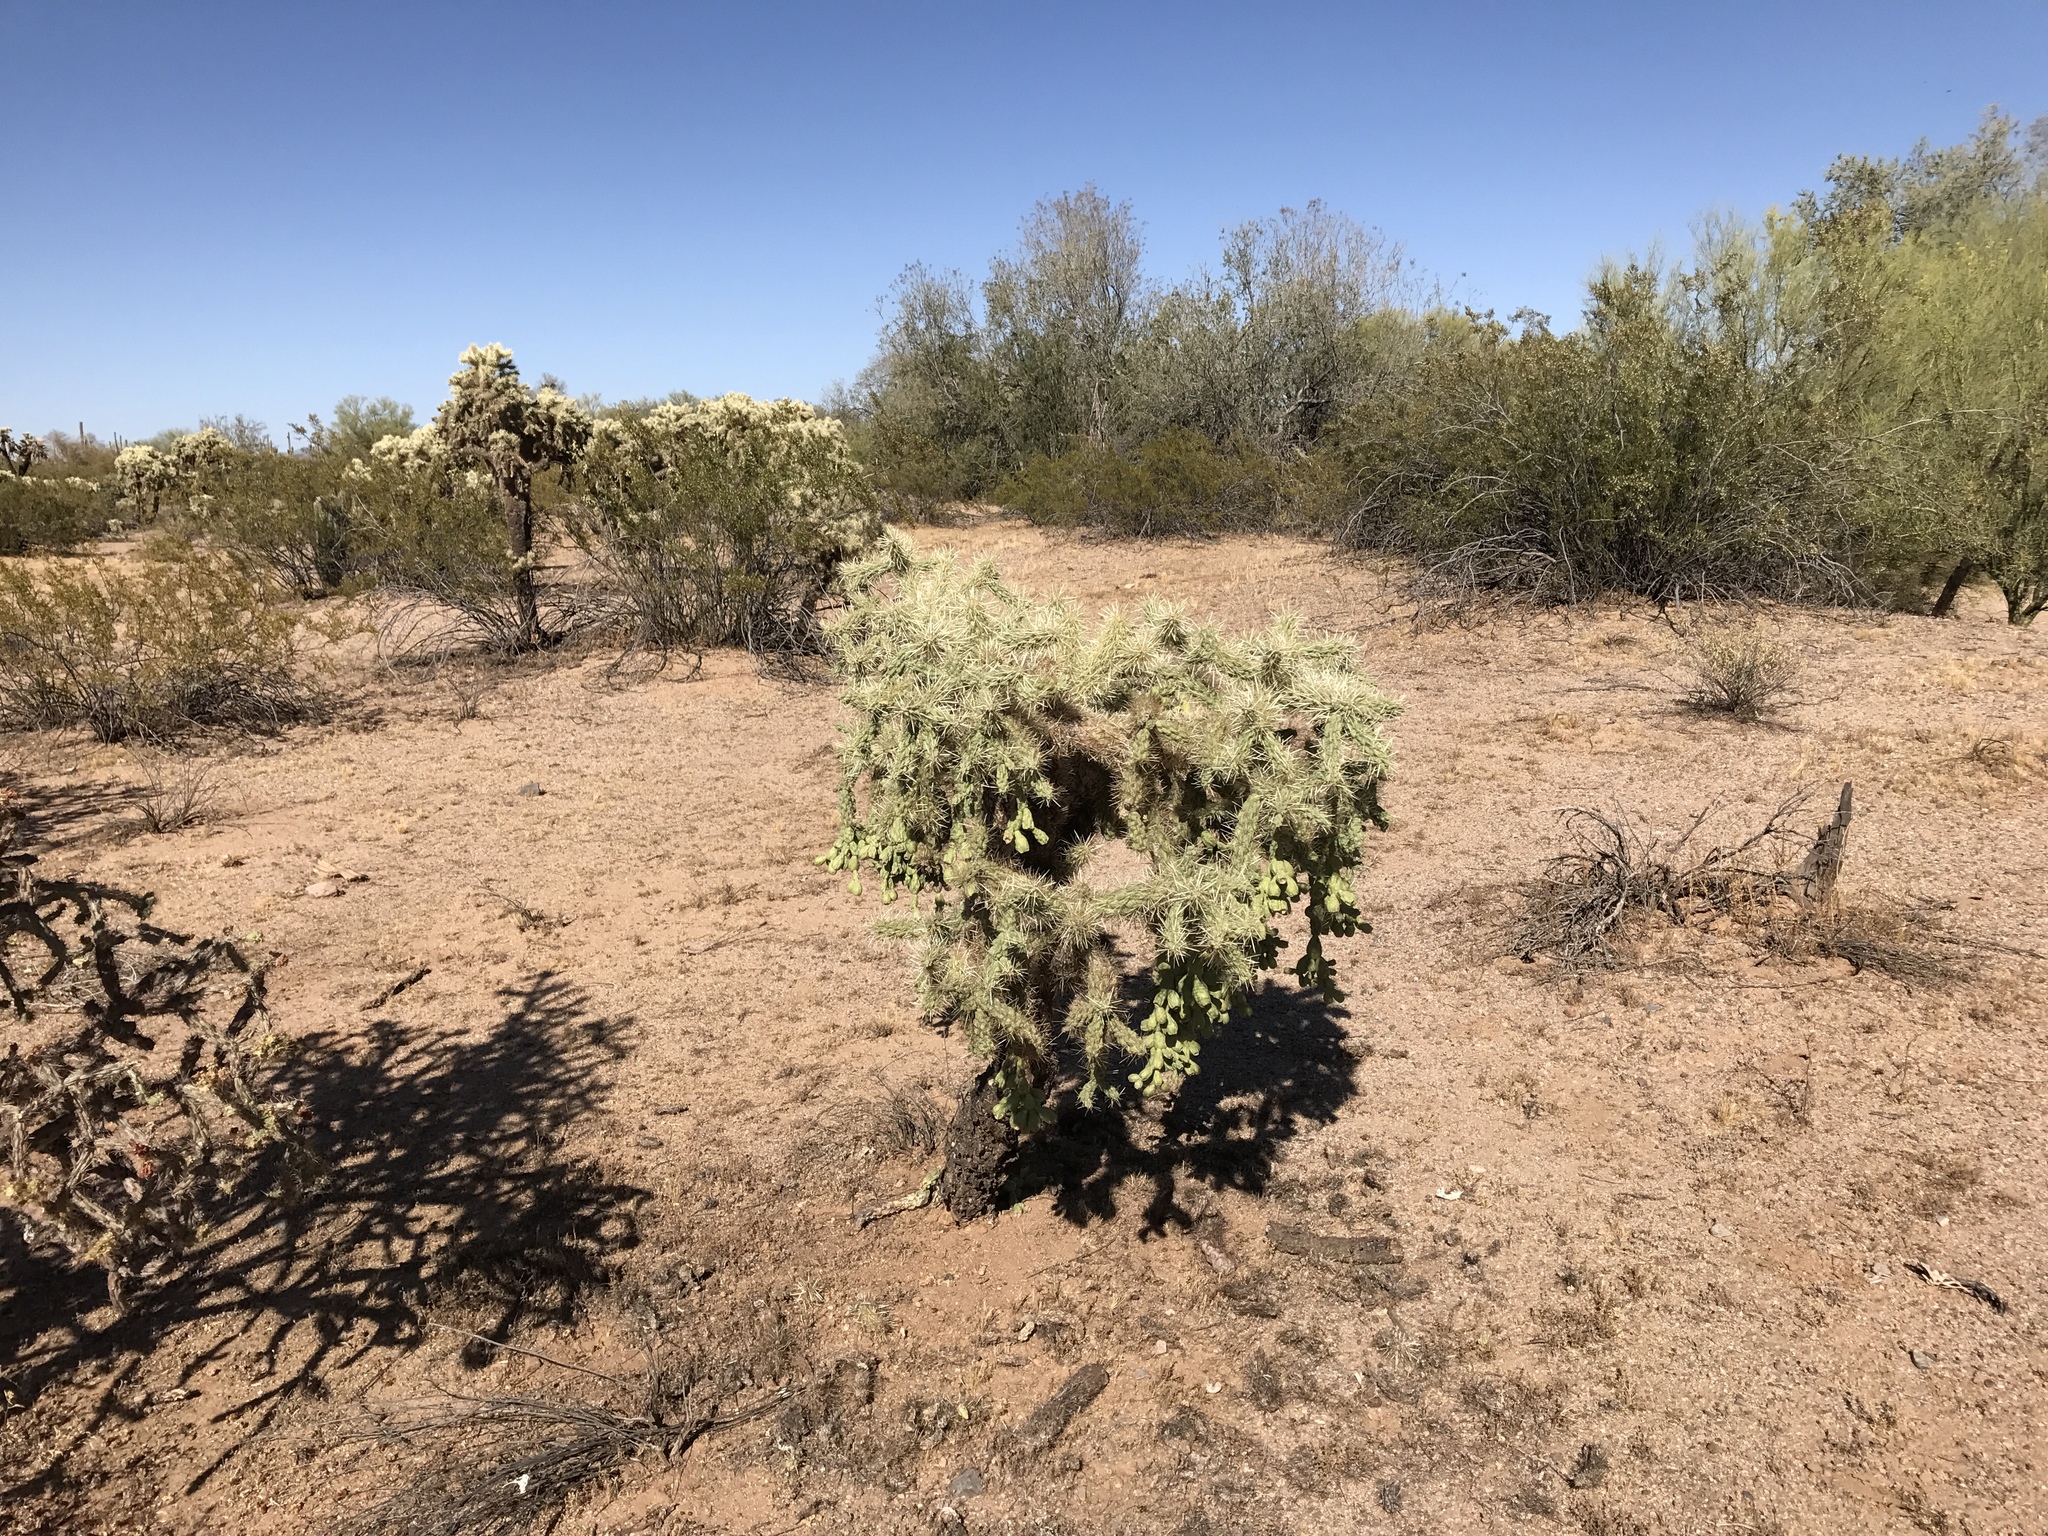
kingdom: Plantae
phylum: Tracheophyta
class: Magnoliopsida
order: Caryophyllales
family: Cactaceae
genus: Cylindropuntia
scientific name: Cylindropuntia fulgida
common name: Jumping cholla
